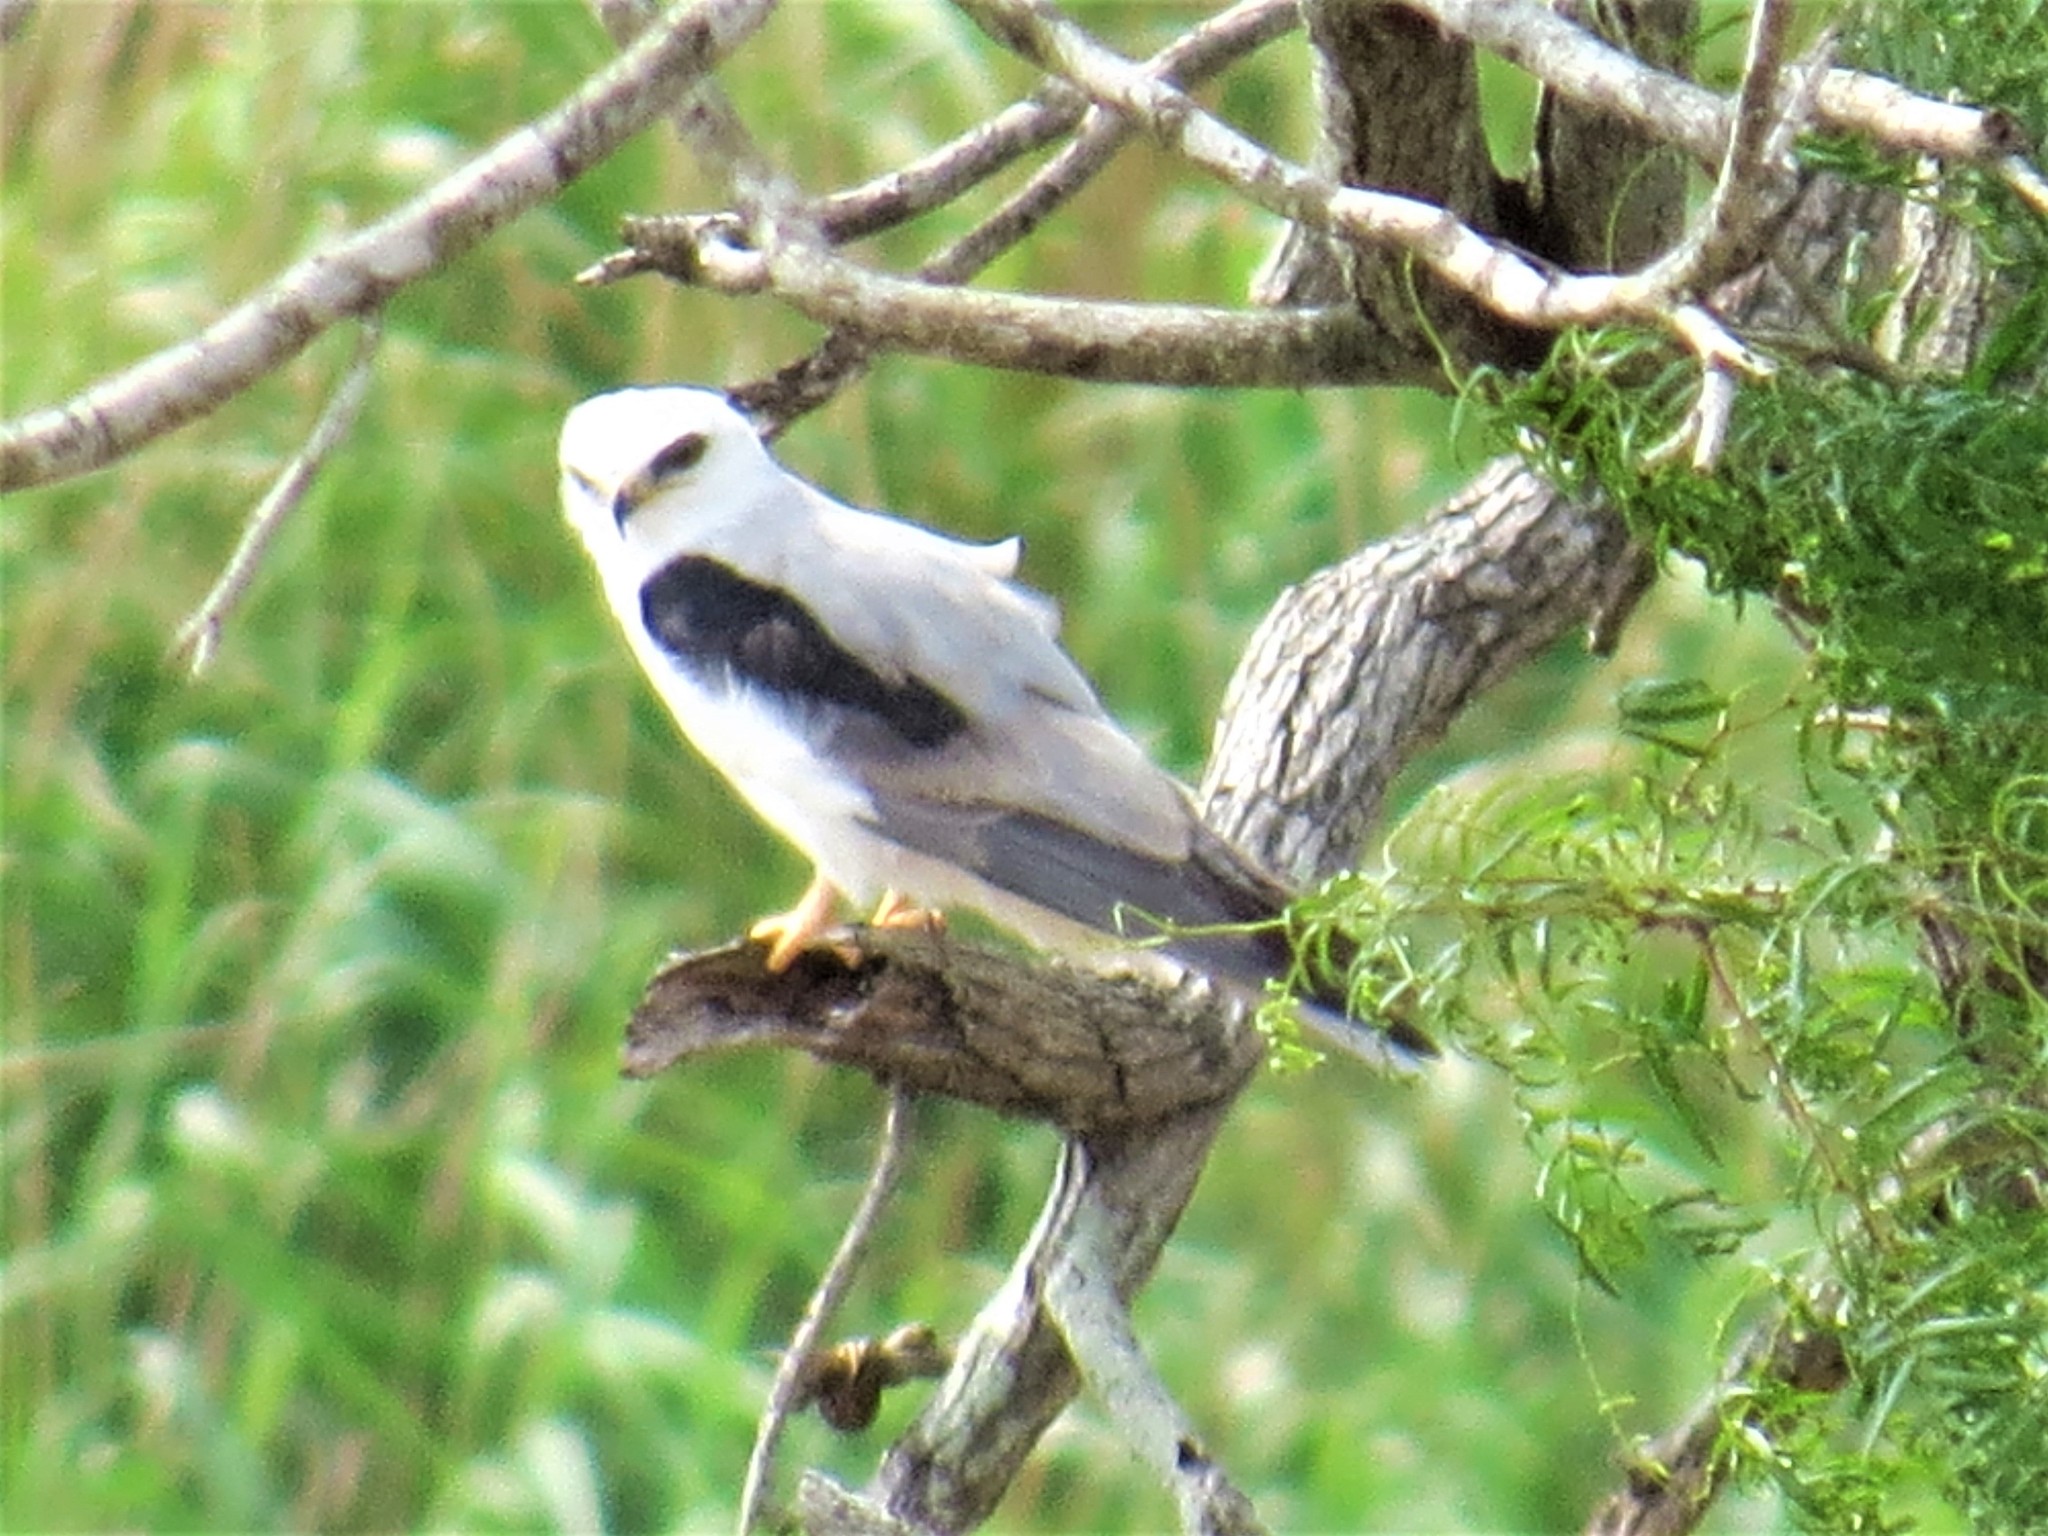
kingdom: Animalia
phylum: Chordata
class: Aves
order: Accipitriformes
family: Accipitridae
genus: Elanus
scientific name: Elanus leucurus
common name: White-tailed kite
